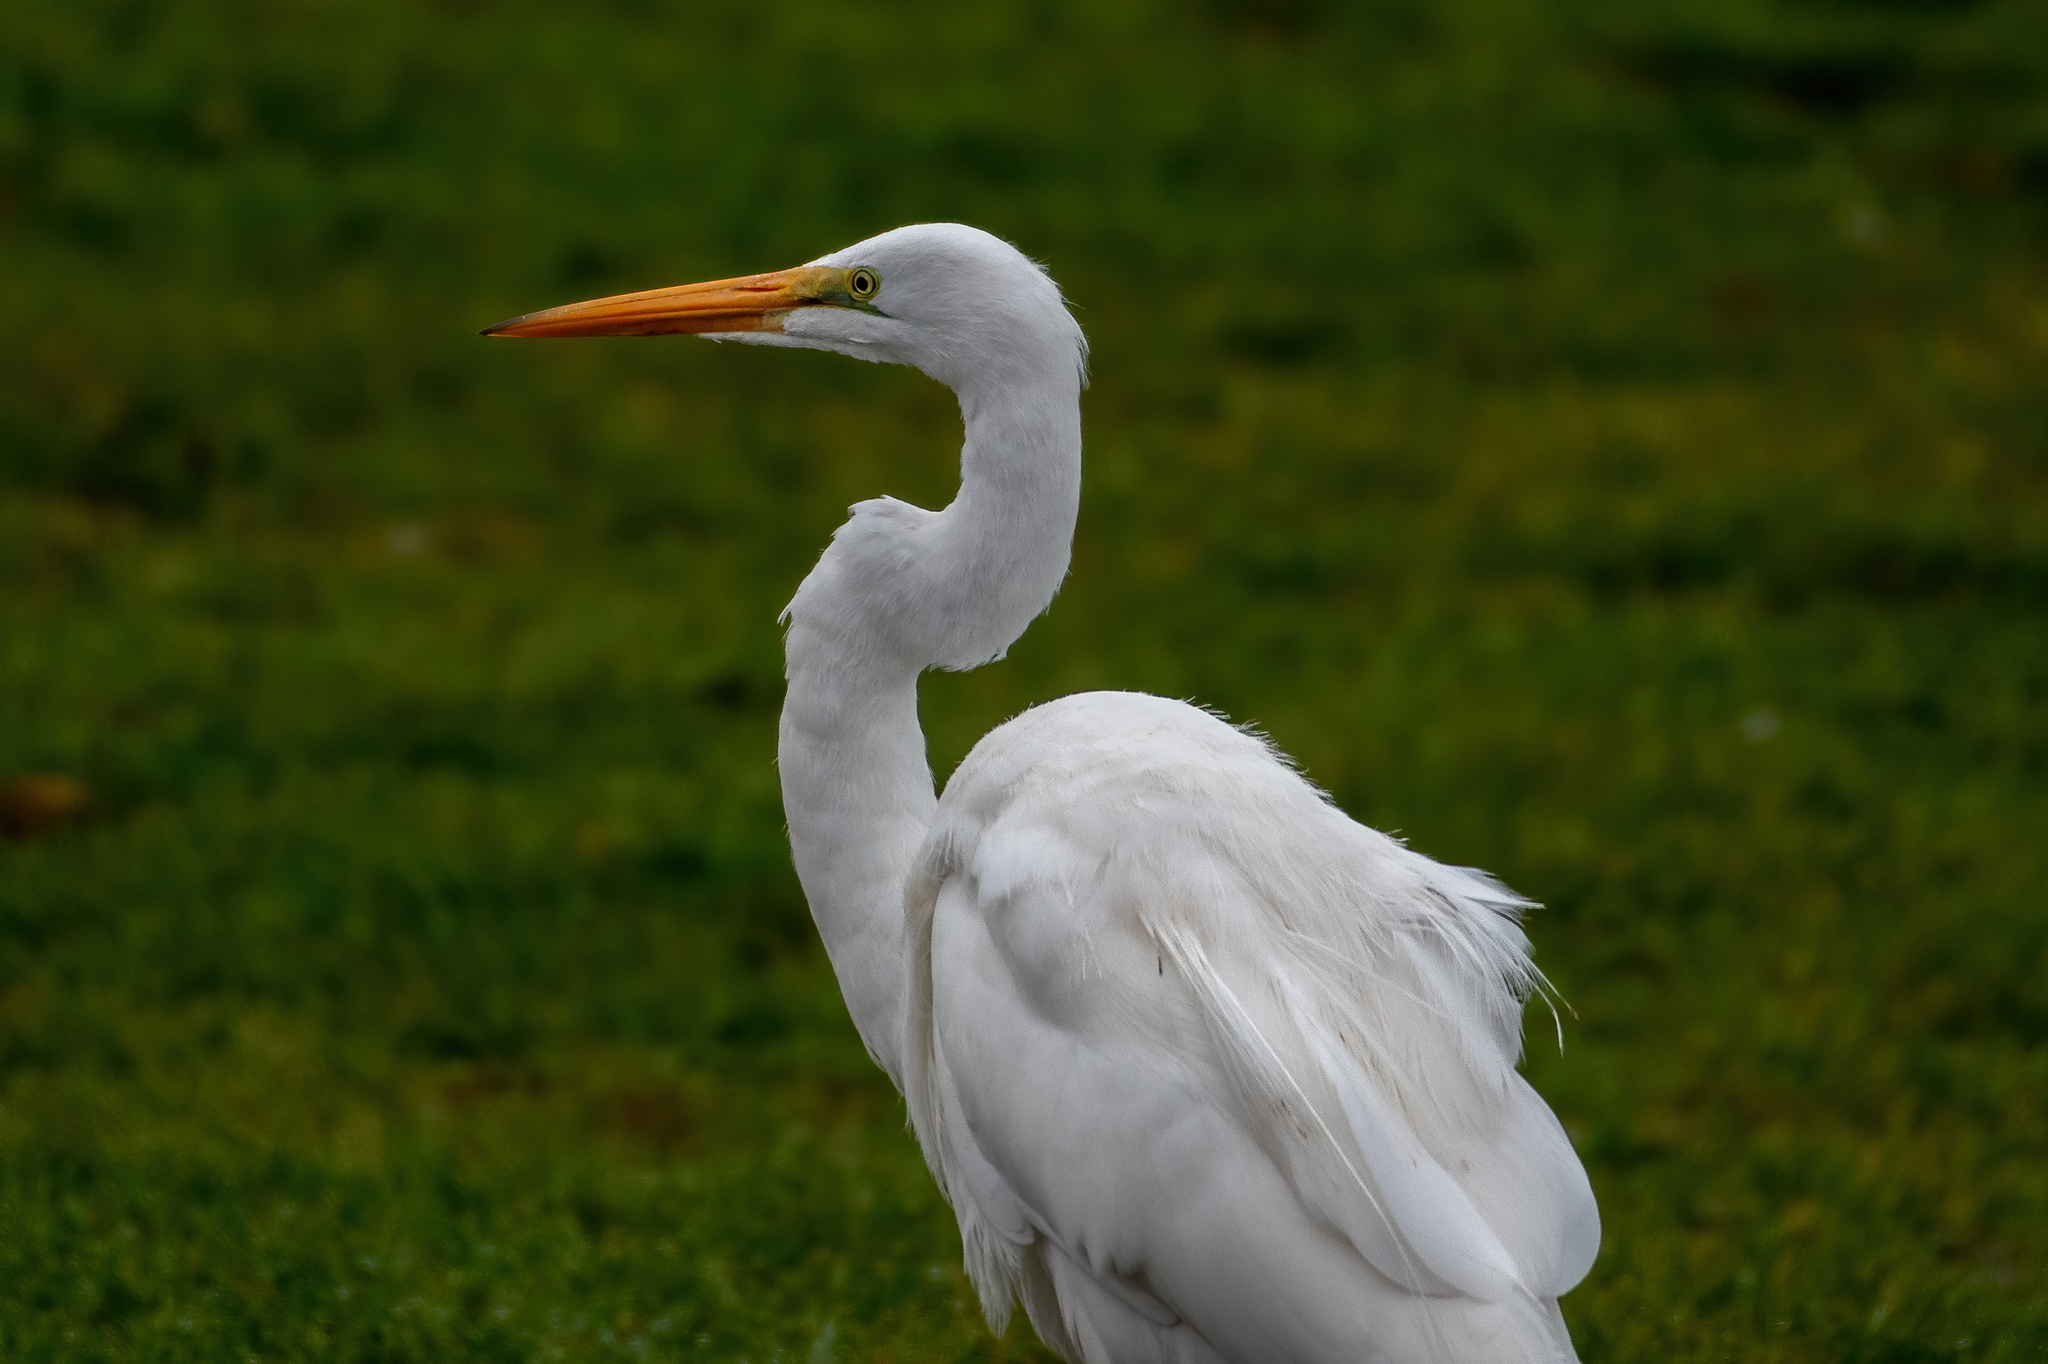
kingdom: Animalia
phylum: Chordata
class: Aves
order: Pelecaniformes
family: Ardeidae
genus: Ardea
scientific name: Ardea alba
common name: Great egret
